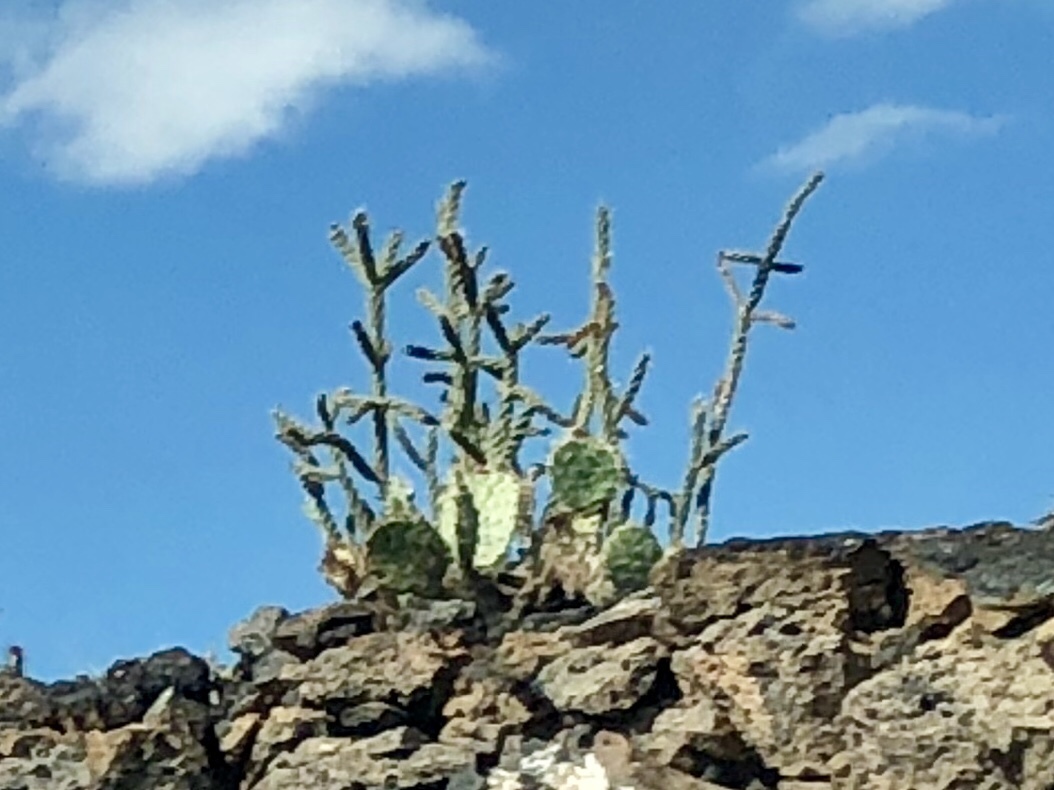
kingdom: Plantae
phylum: Tracheophyta
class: Magnoliopsida
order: Caryophyllales
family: Cactaceae
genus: Cylindropuntia
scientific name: Cylindropuntia imbricata
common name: Candelabrum cactus
